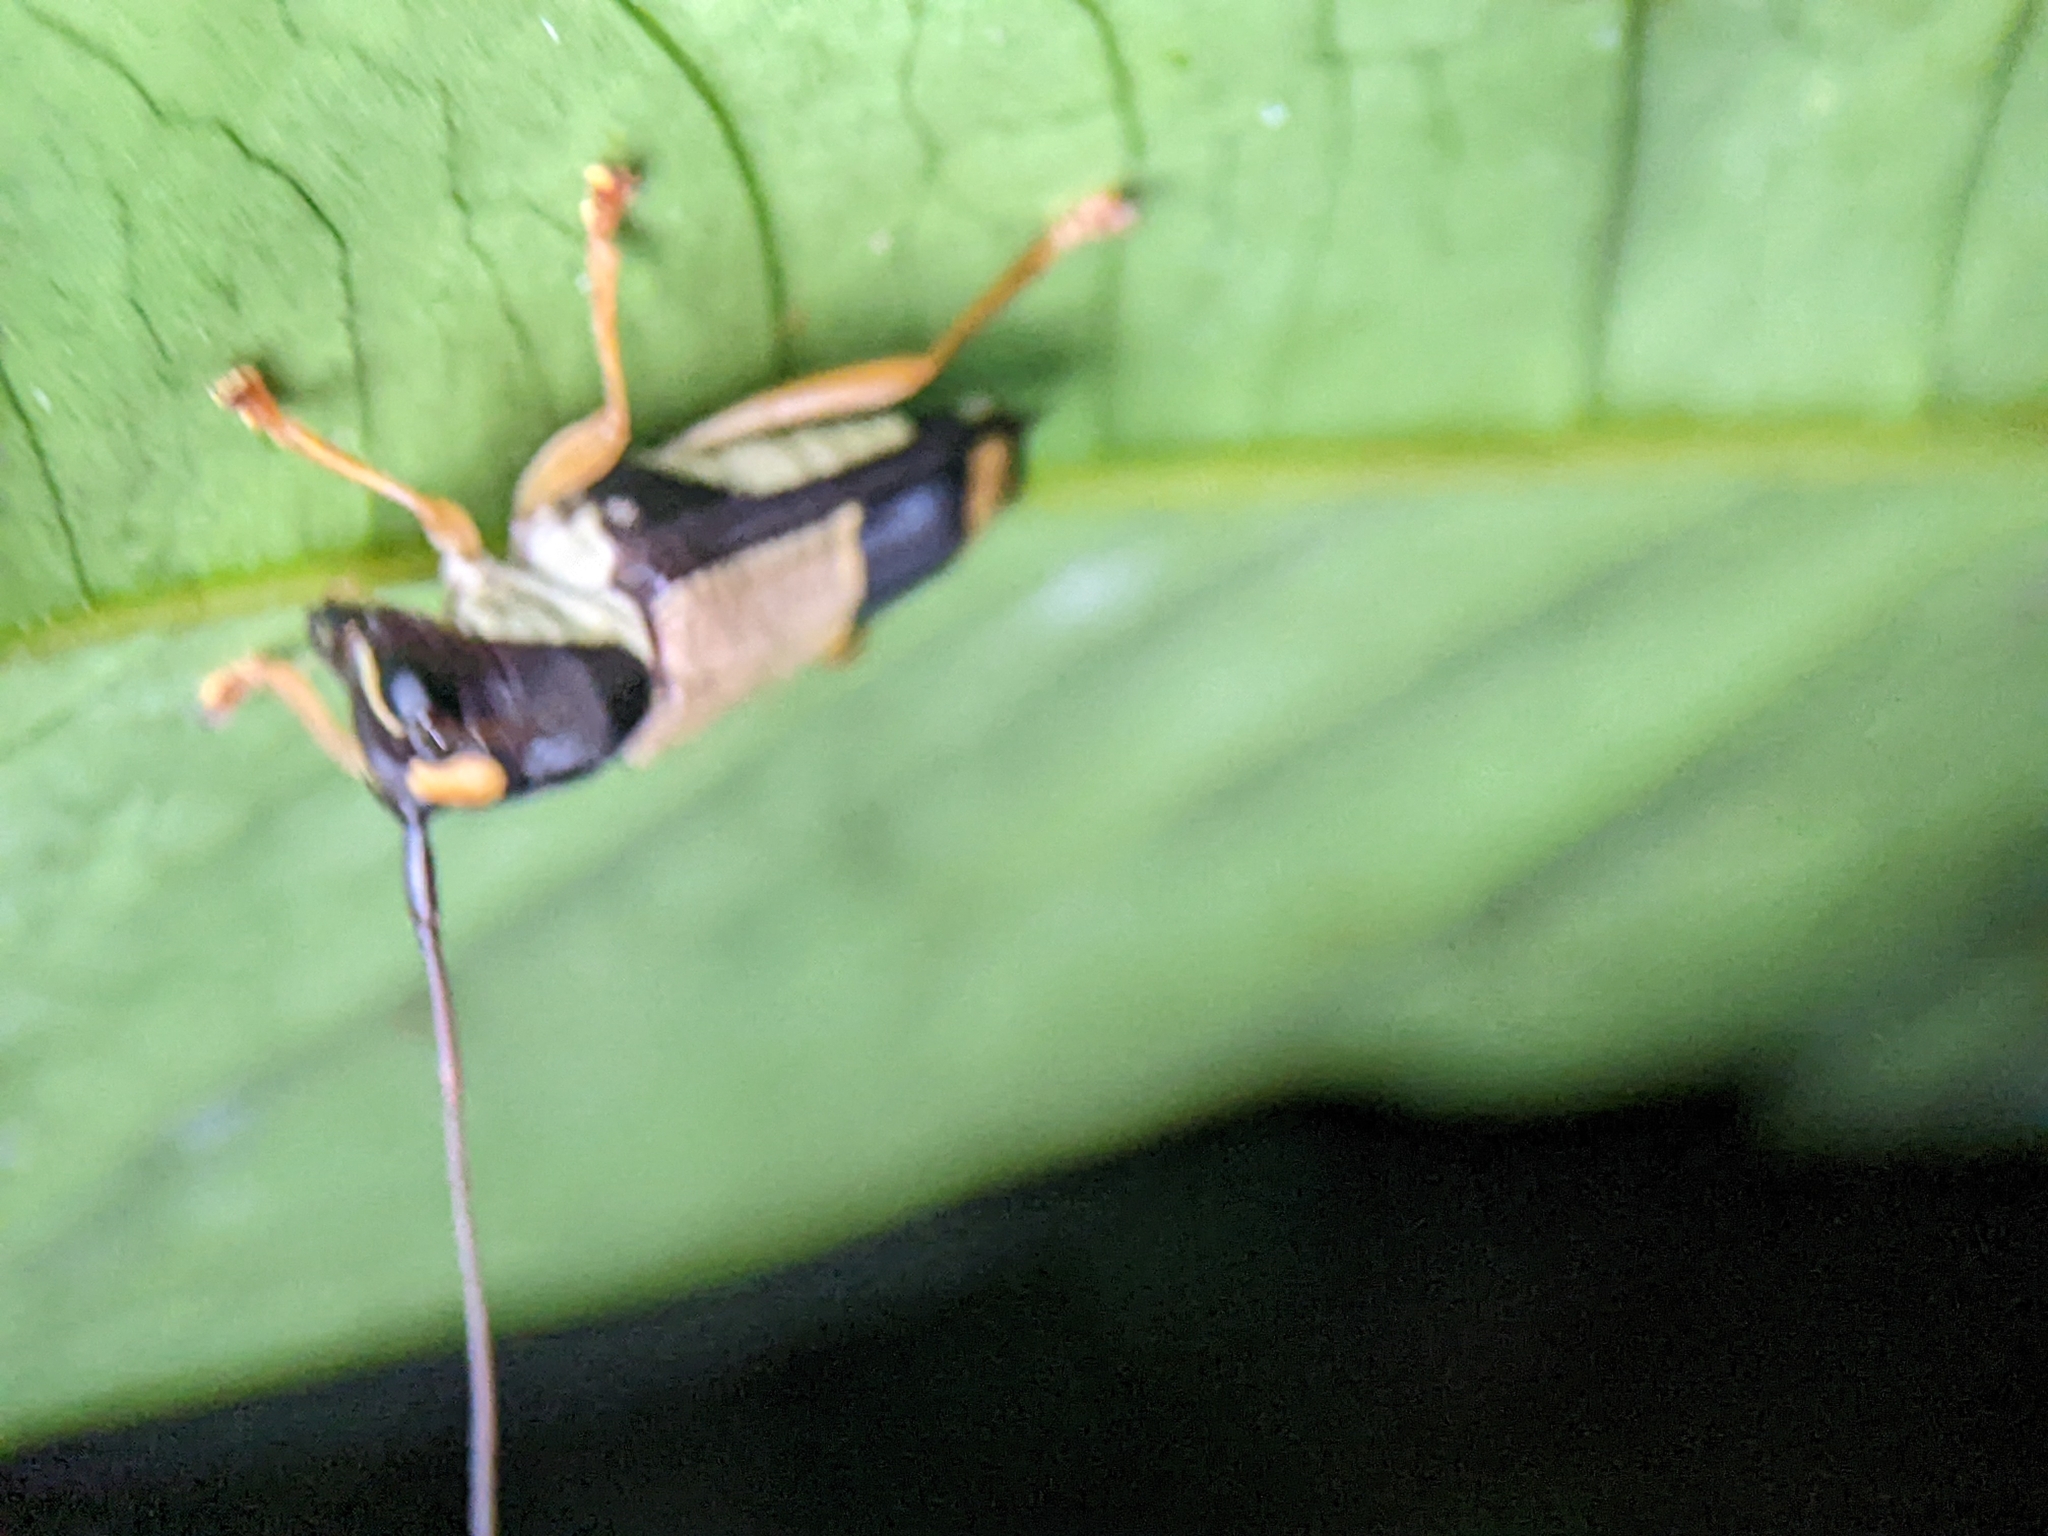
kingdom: Animalia
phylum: Arthropoda
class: Insecta
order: Coleoptera
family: Cerambycidae
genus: Glenea
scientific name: Glenea dimidiata
